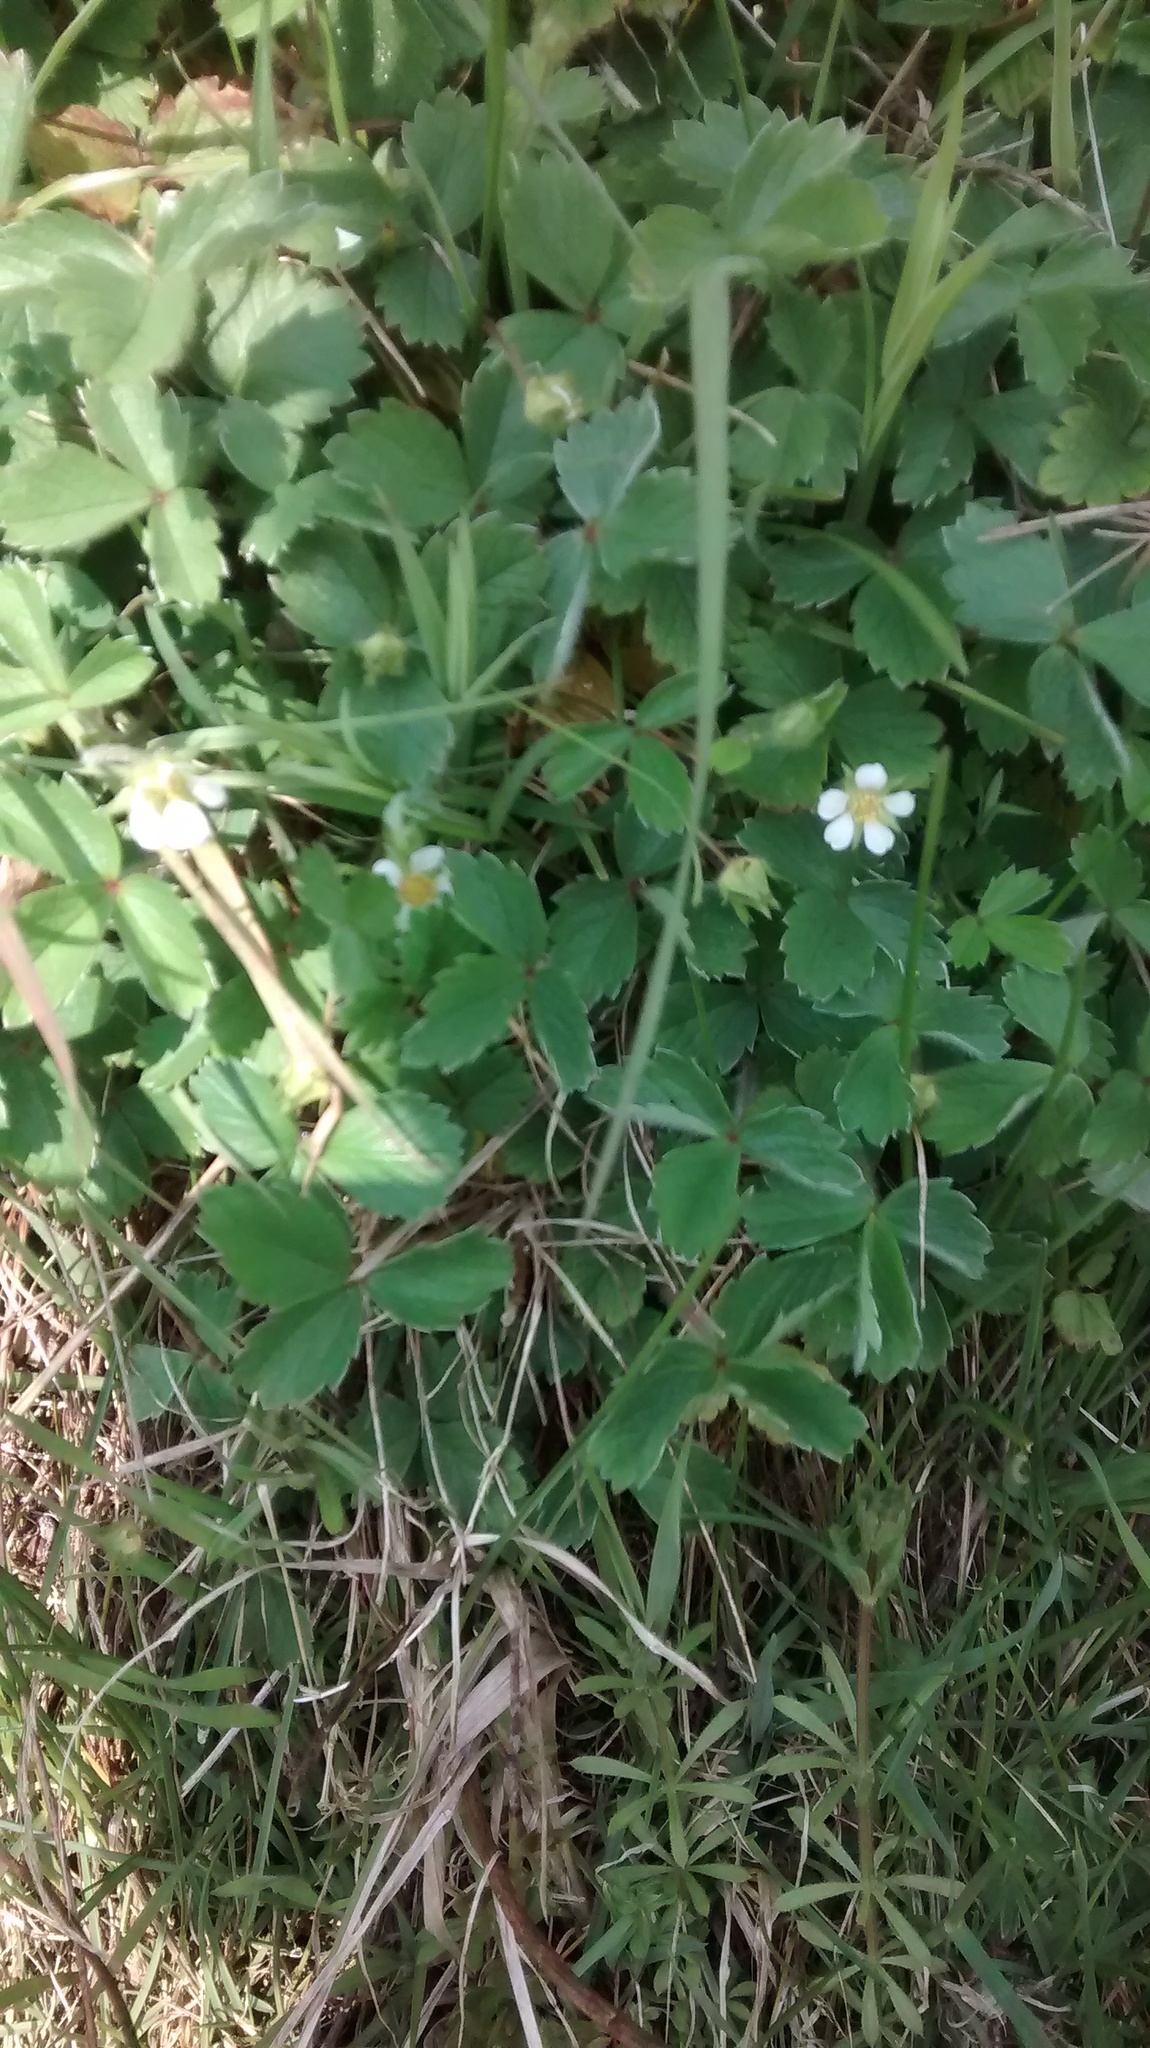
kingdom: Plantae
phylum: Tracheophyta
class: Magnoliopsida
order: Rosales
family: Rosaceae
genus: Potentilla
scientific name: Potentilla sterilis
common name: Barren strawberry
